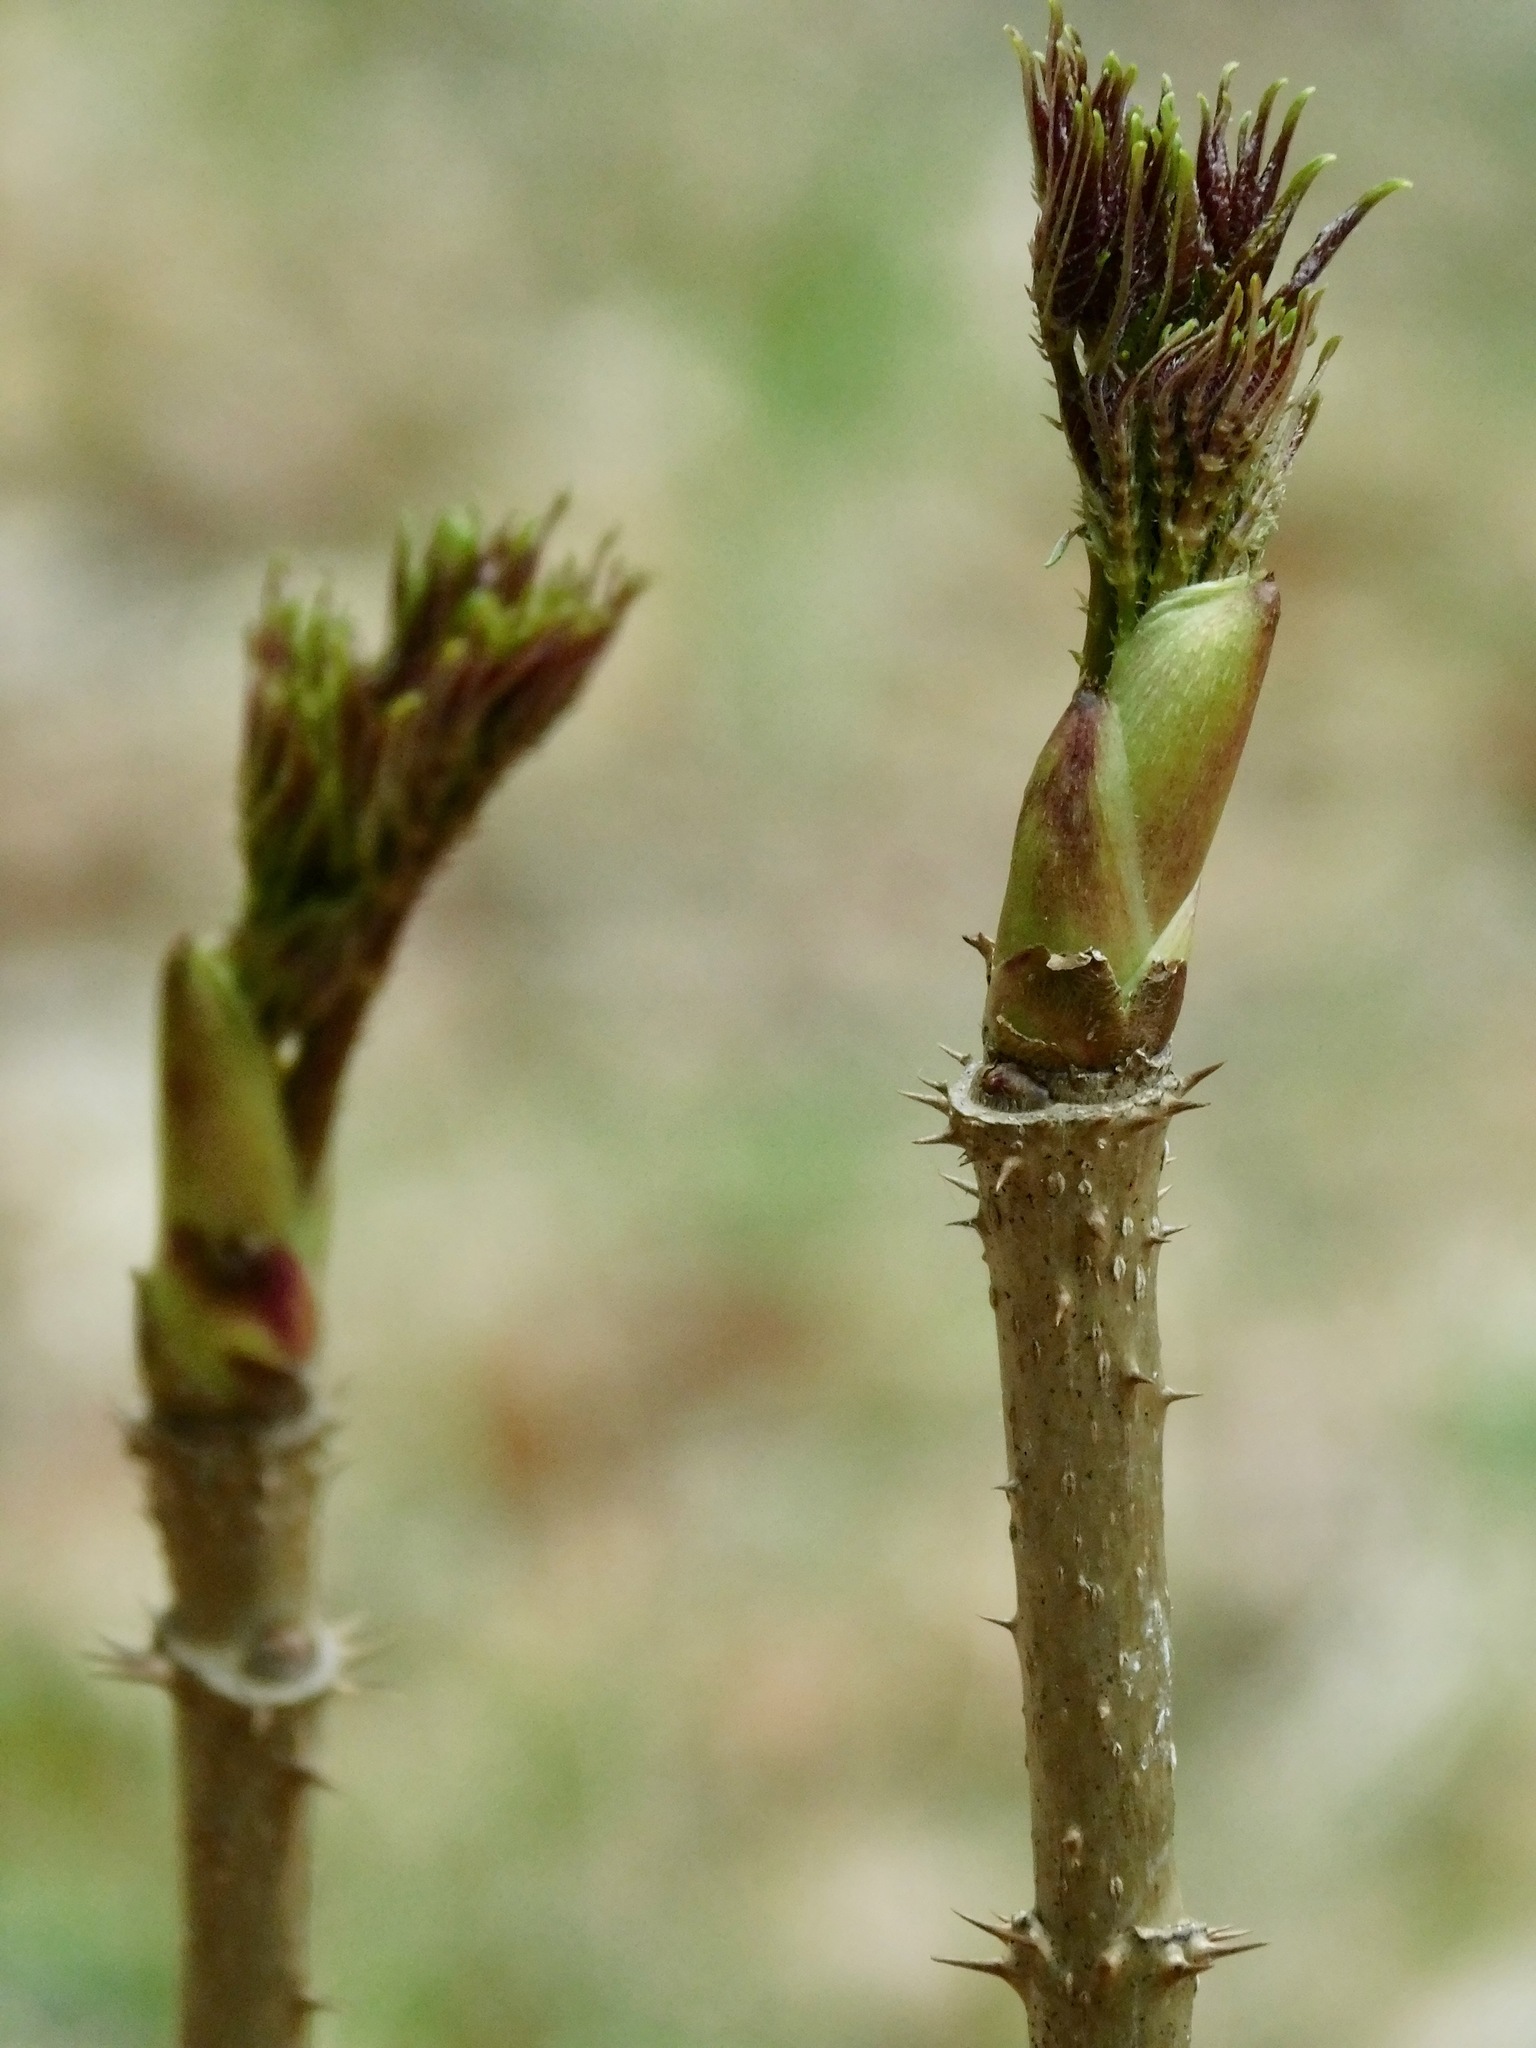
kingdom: Plantae
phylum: Tracheophyta
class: Magnoliopsida
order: Apiales
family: Araliaceae
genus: Aralia
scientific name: Aralia spinosa
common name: Hercules'-club
